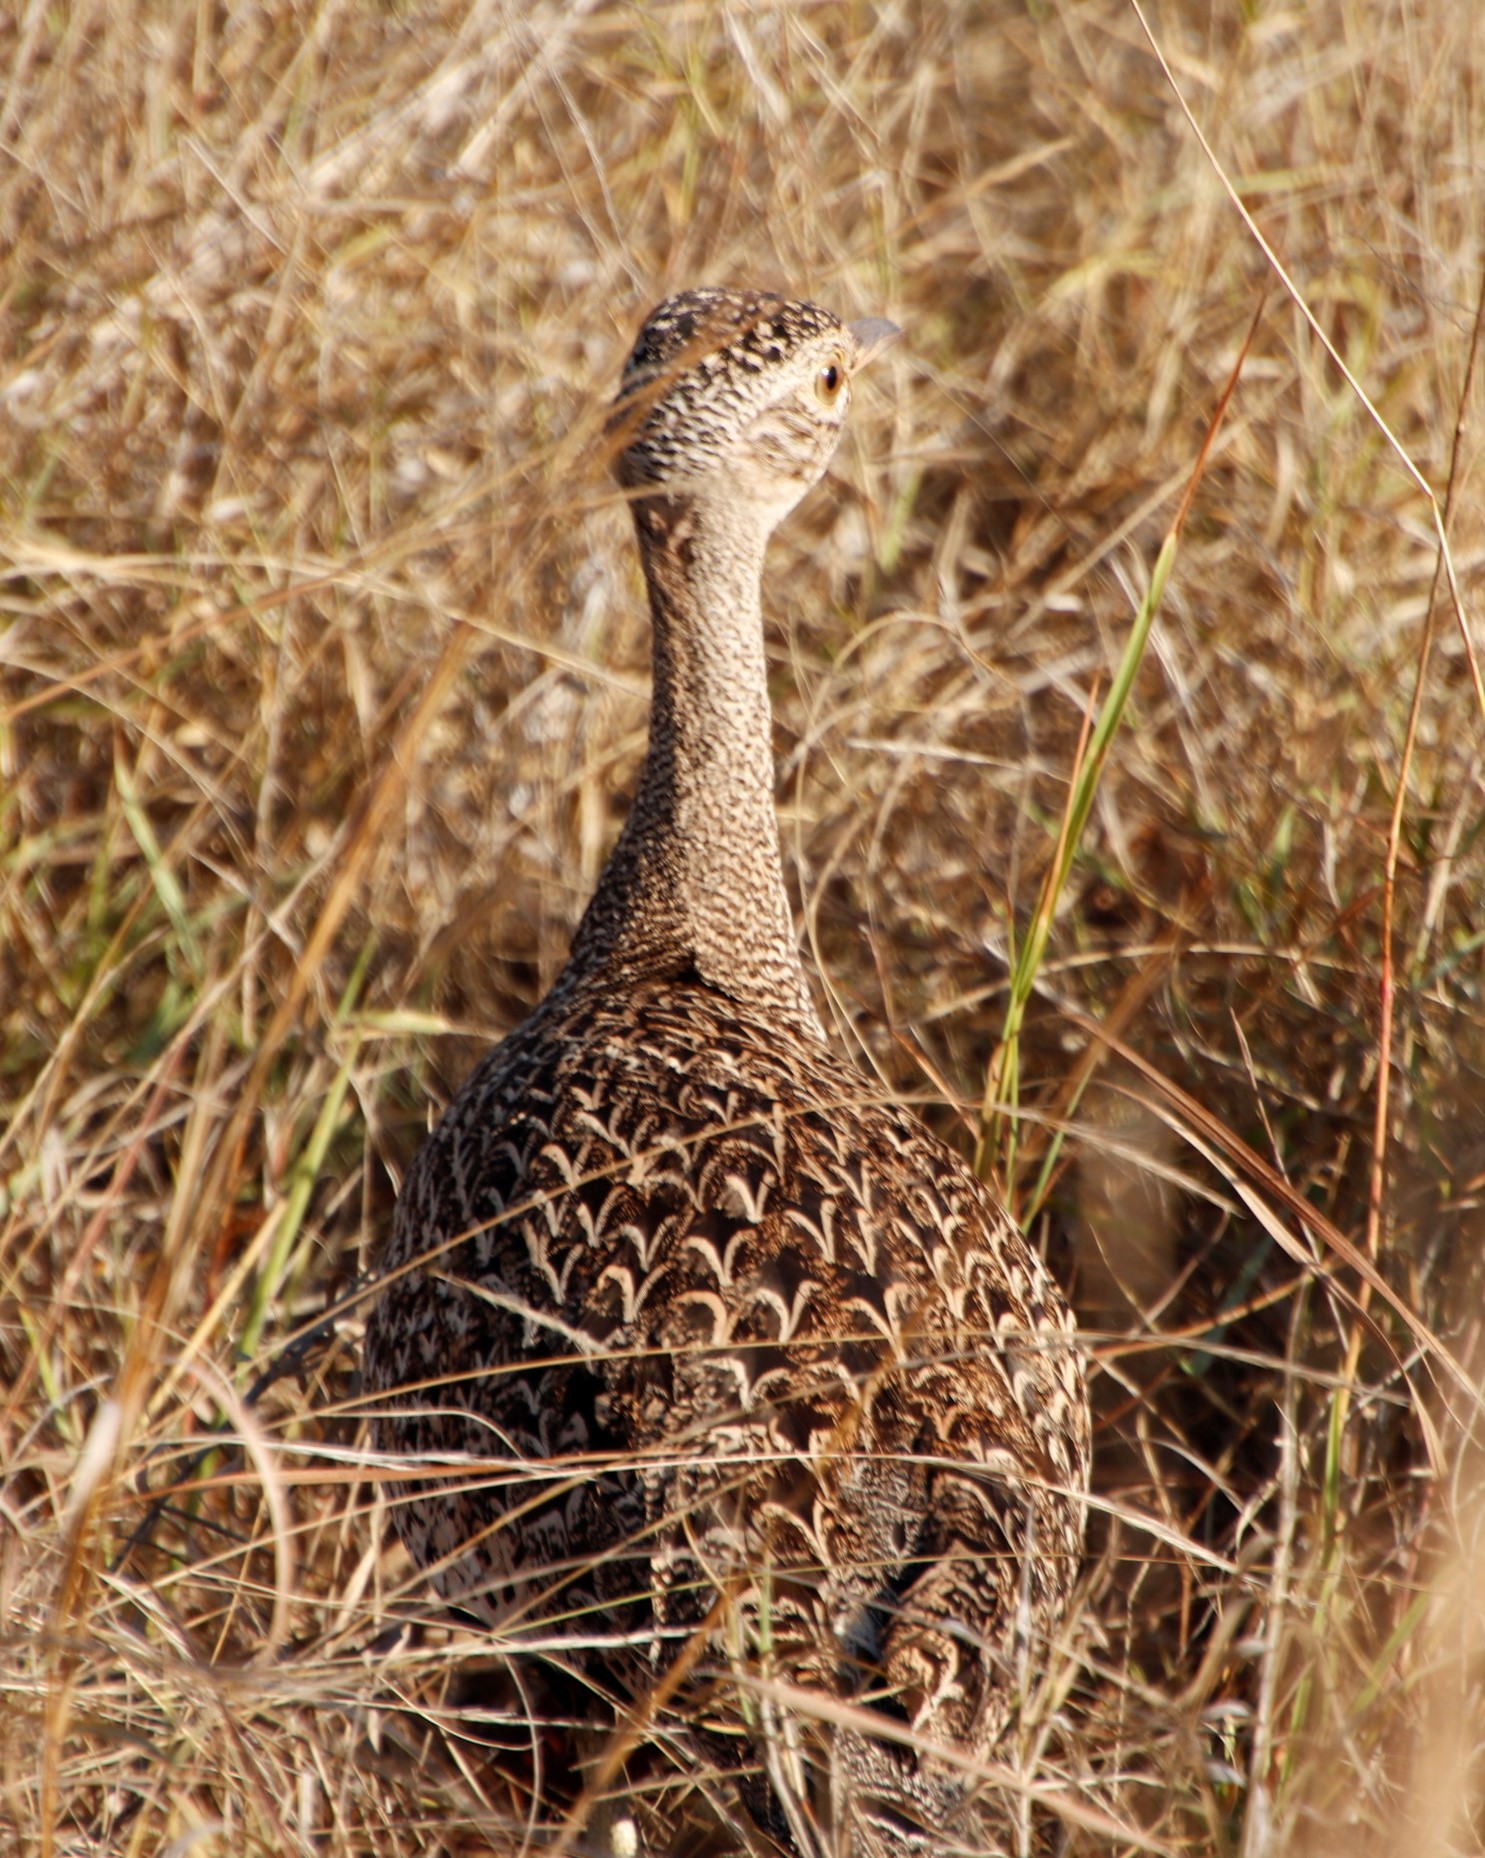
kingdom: Animalia
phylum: Chordata
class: Aves
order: Otidiformes
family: Otididae
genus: Lophotis
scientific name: Lophotis ruficrista
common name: Red-crested korhaan
